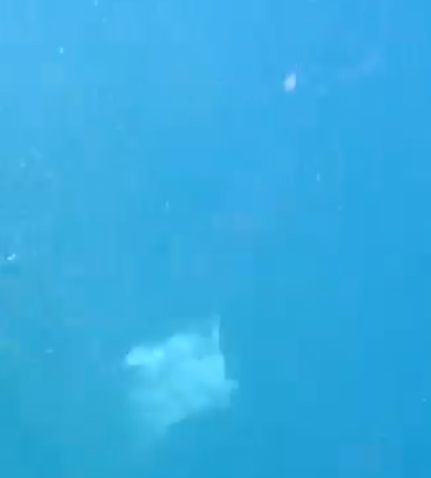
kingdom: Animalia
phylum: Chordata
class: Elasmobranchii
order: Myliobatiformes
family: Myliobatidae
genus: Myliobatis
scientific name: Myliobatis tenuicaudatus
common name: Eagle ray
